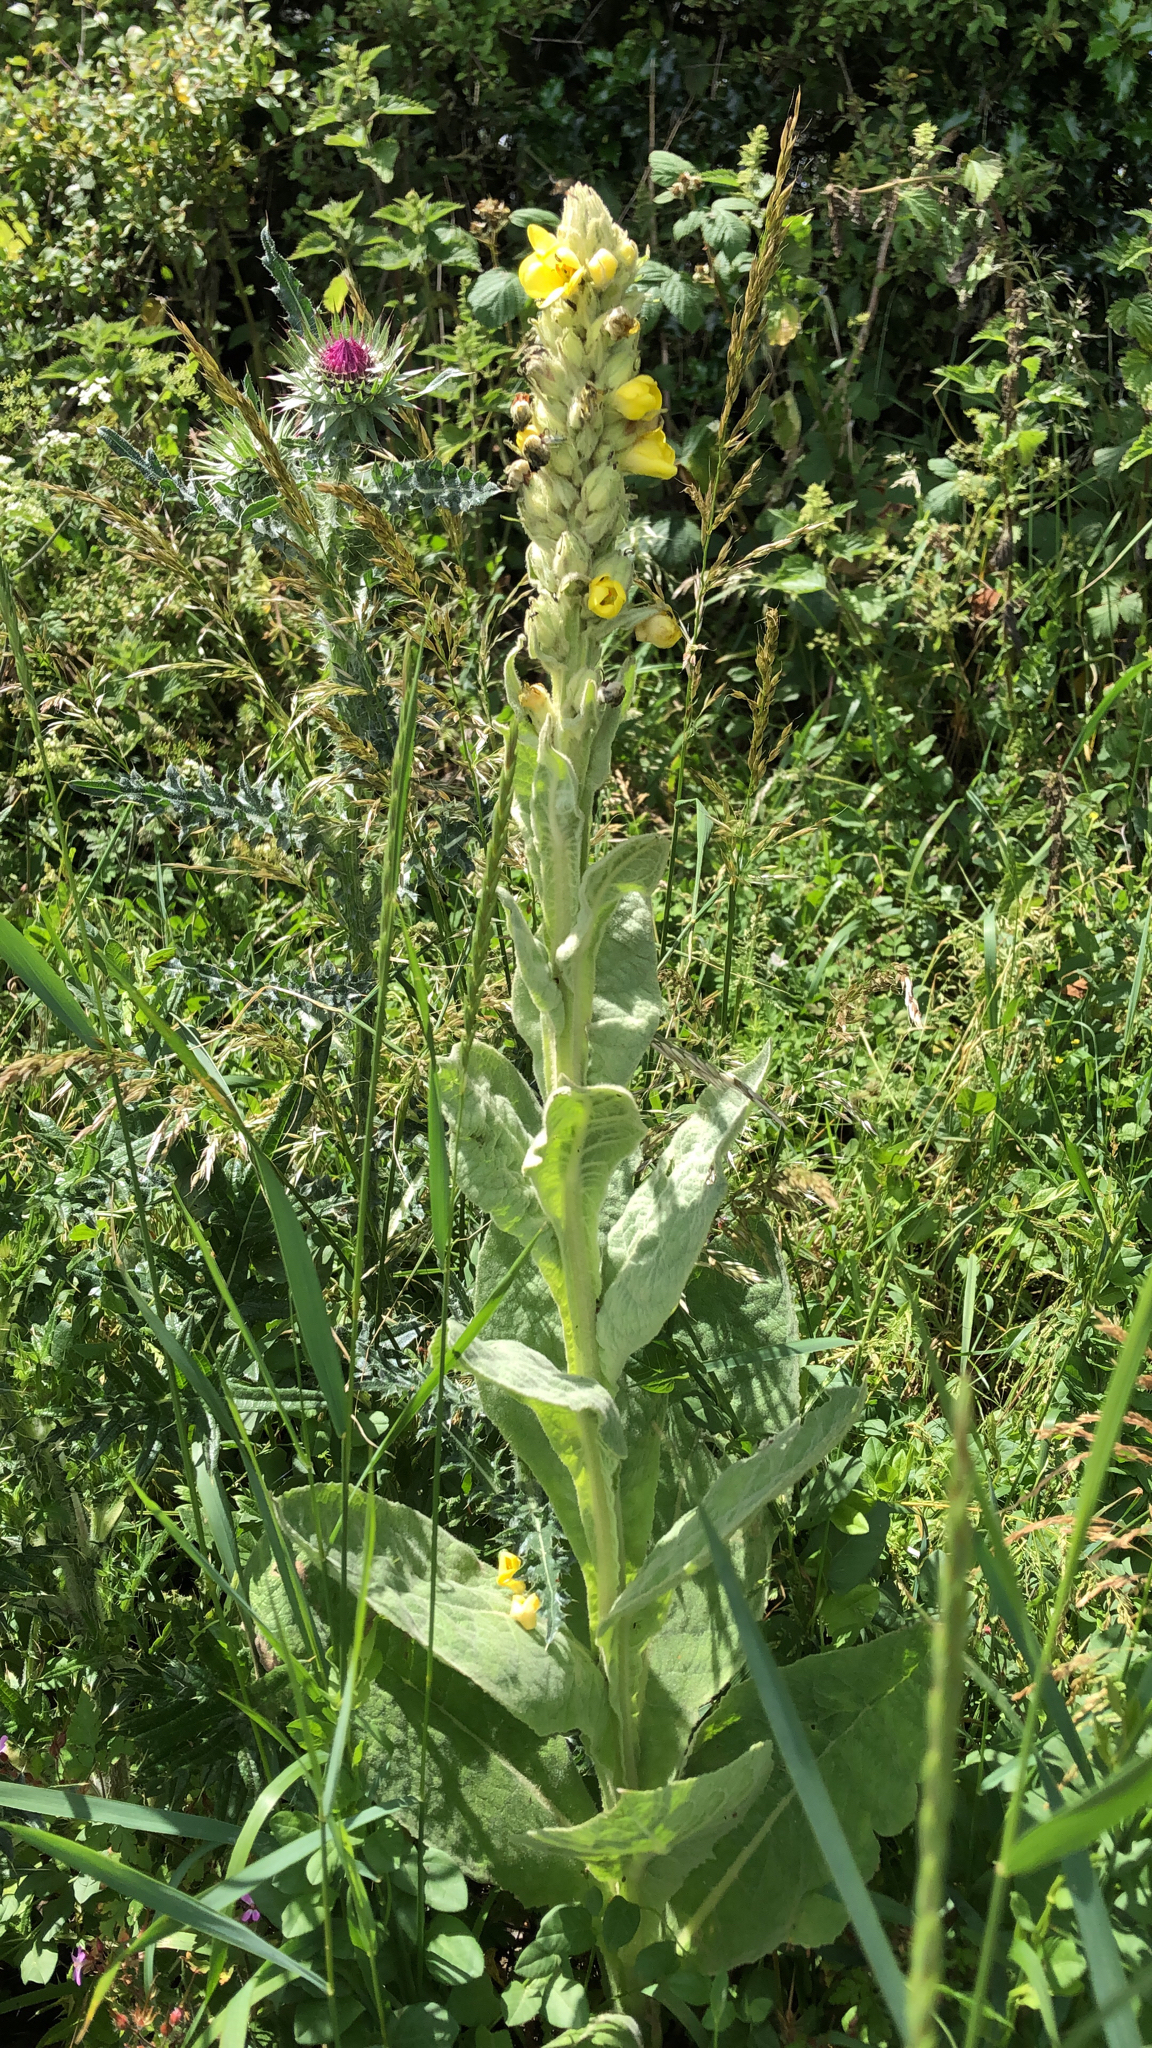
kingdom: Plantae
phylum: Tracheophyta
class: Magnoliopsida
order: Lamiales
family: Scrophulariaceae
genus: Verbascum
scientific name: Verbascum thapsus
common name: Common mullein
